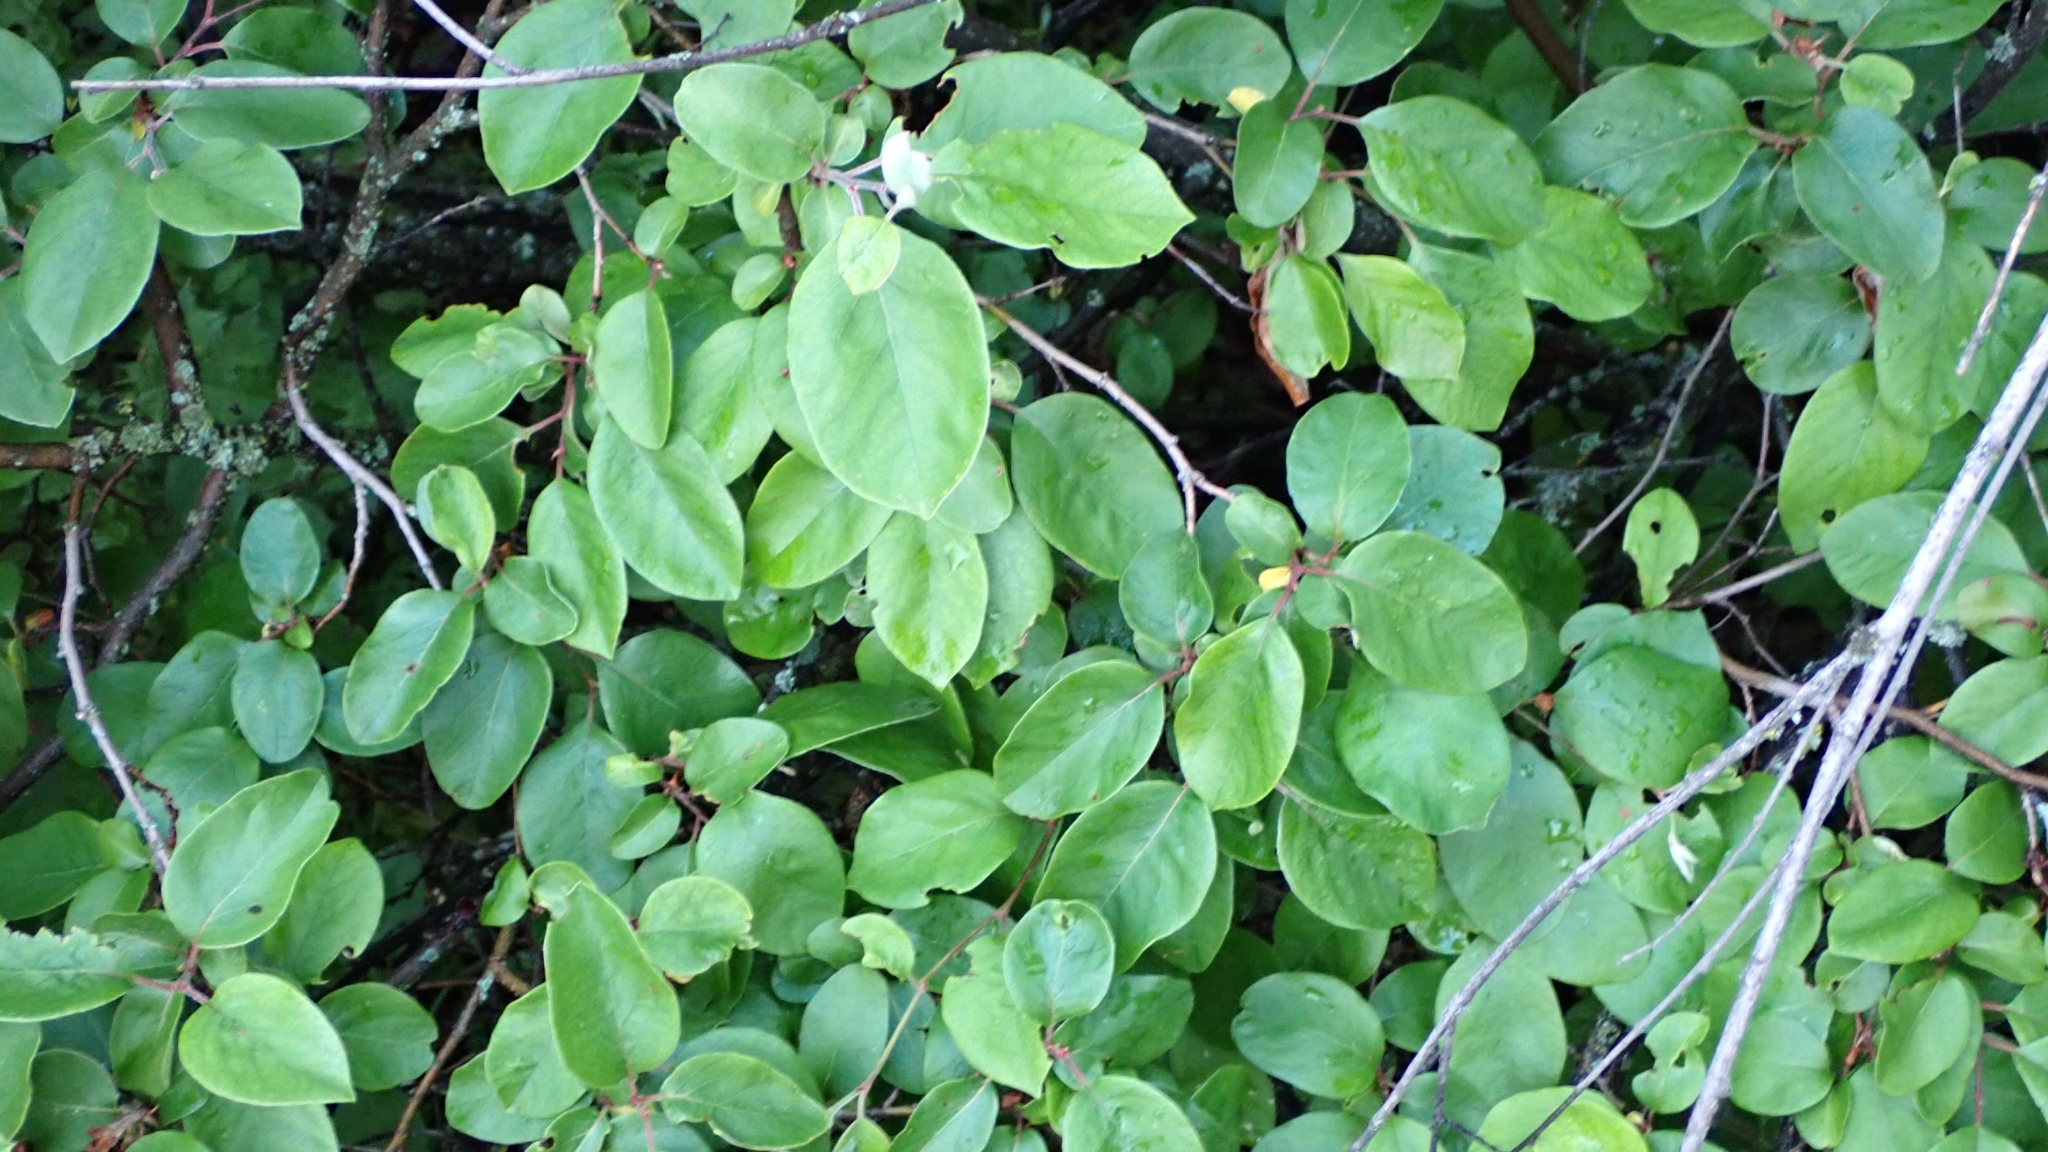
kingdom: Plantae
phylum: Tracheophyta
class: Magnoliopsida
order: Rosales
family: Rosaceae
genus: Cydonia
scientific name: Cydonia oblonga
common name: Quince
